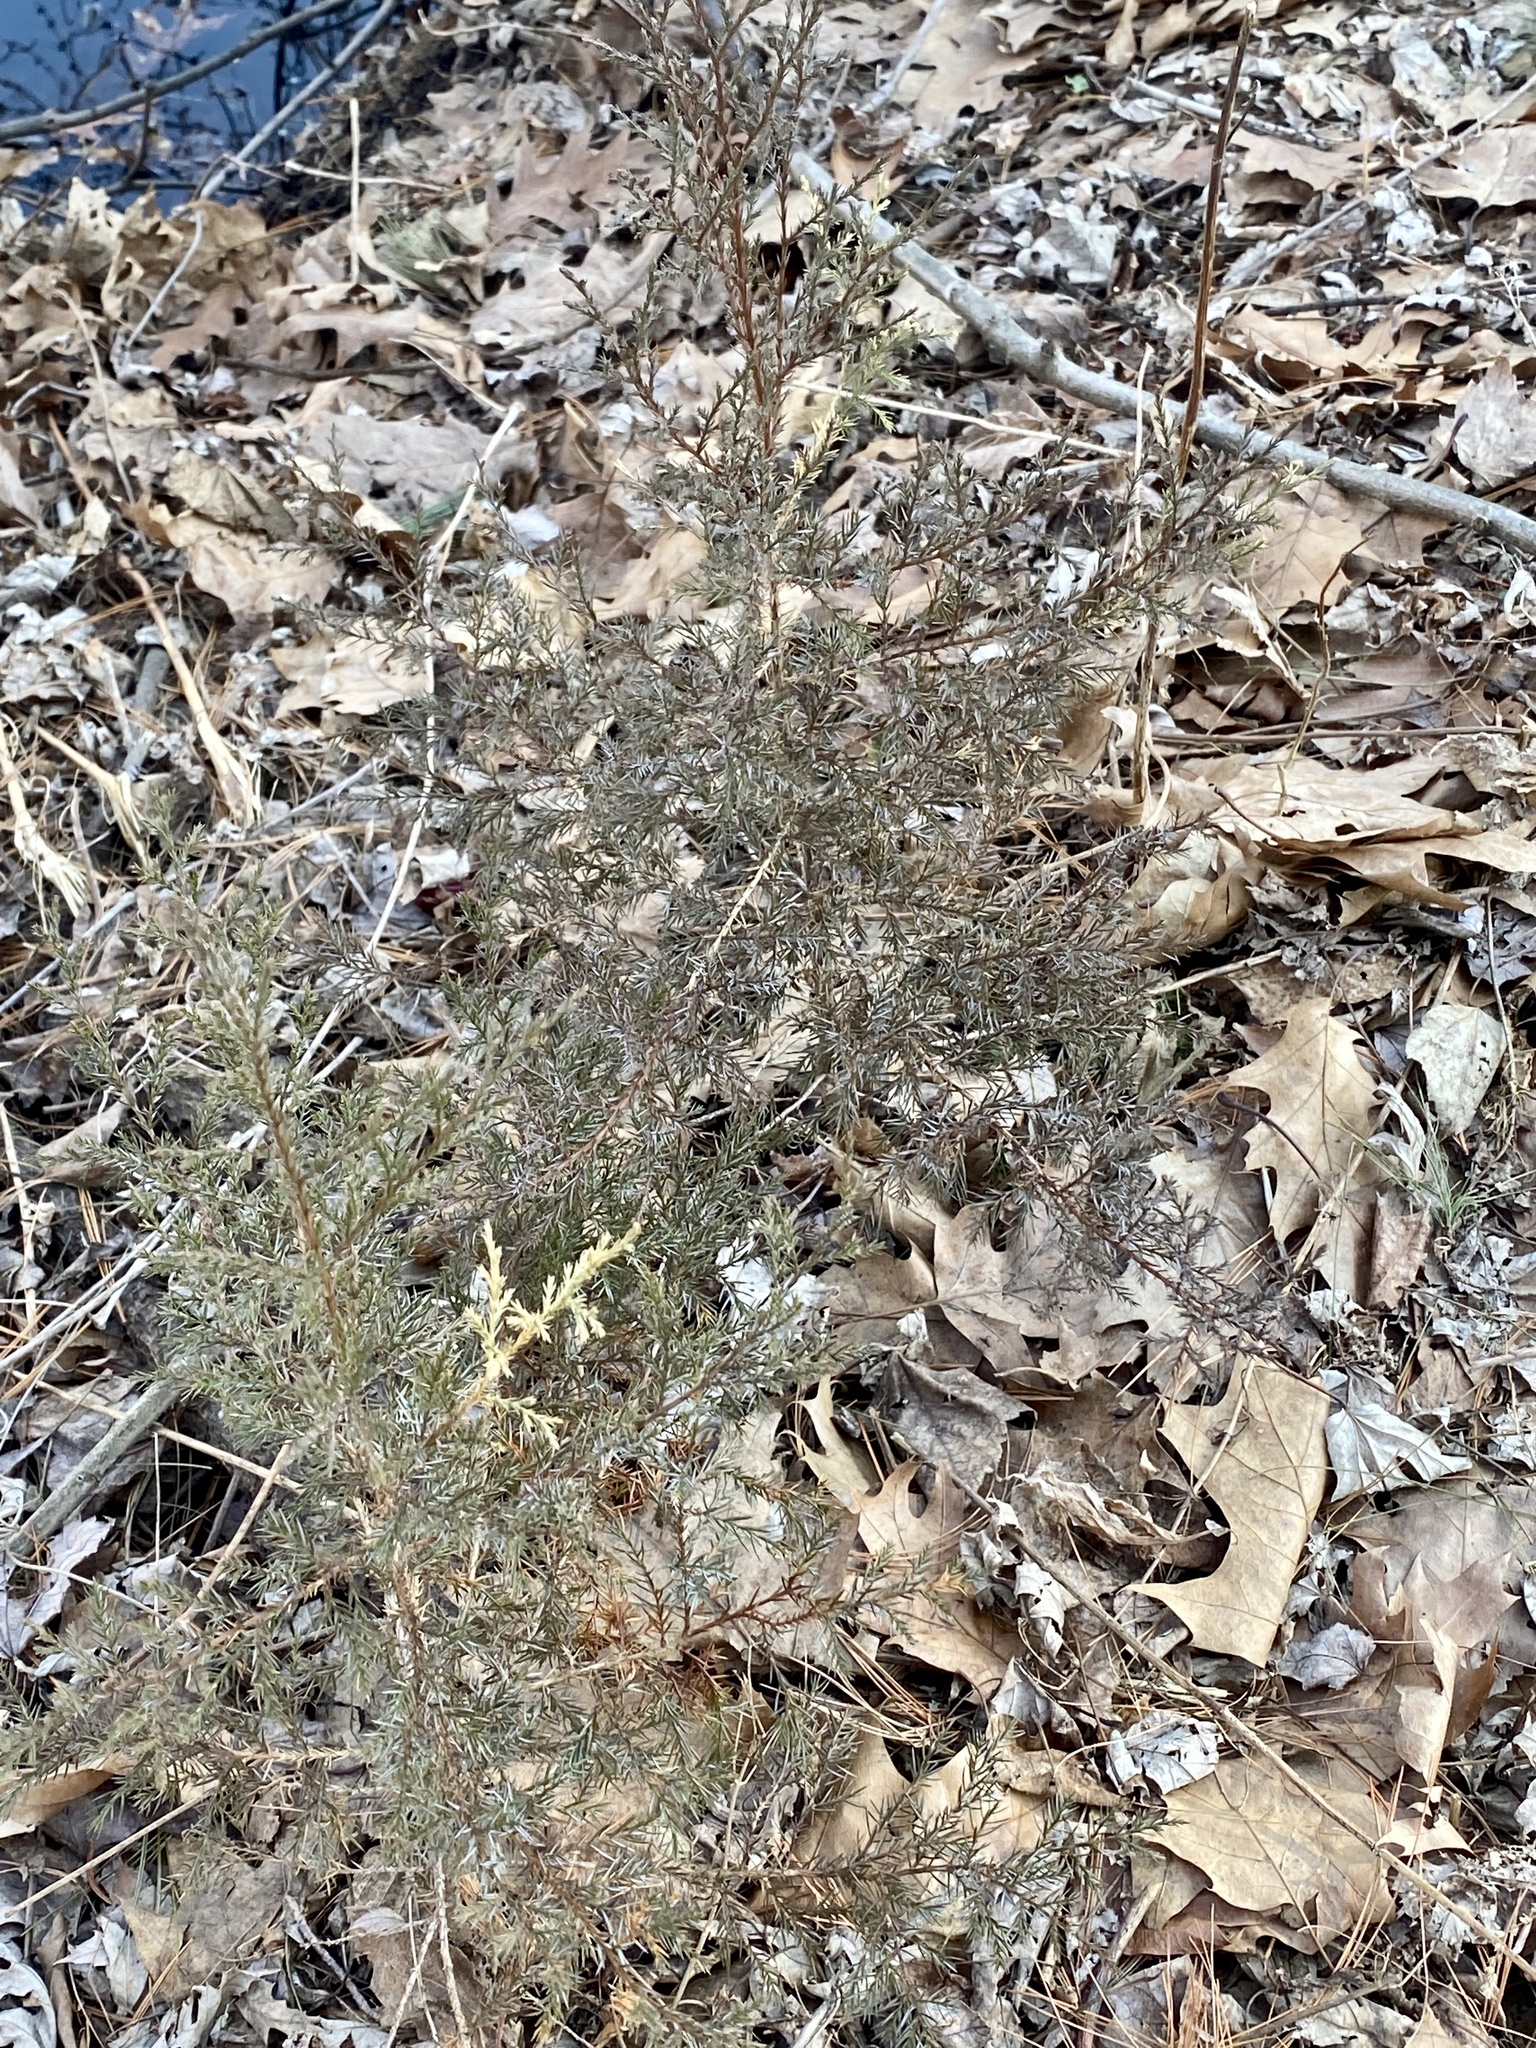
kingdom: Plantae
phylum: Tracheophyta
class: Pinopsida
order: Pinales
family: Cupressaceae
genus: Juniperus
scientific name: Juniperus virginiana
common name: Red juniper
